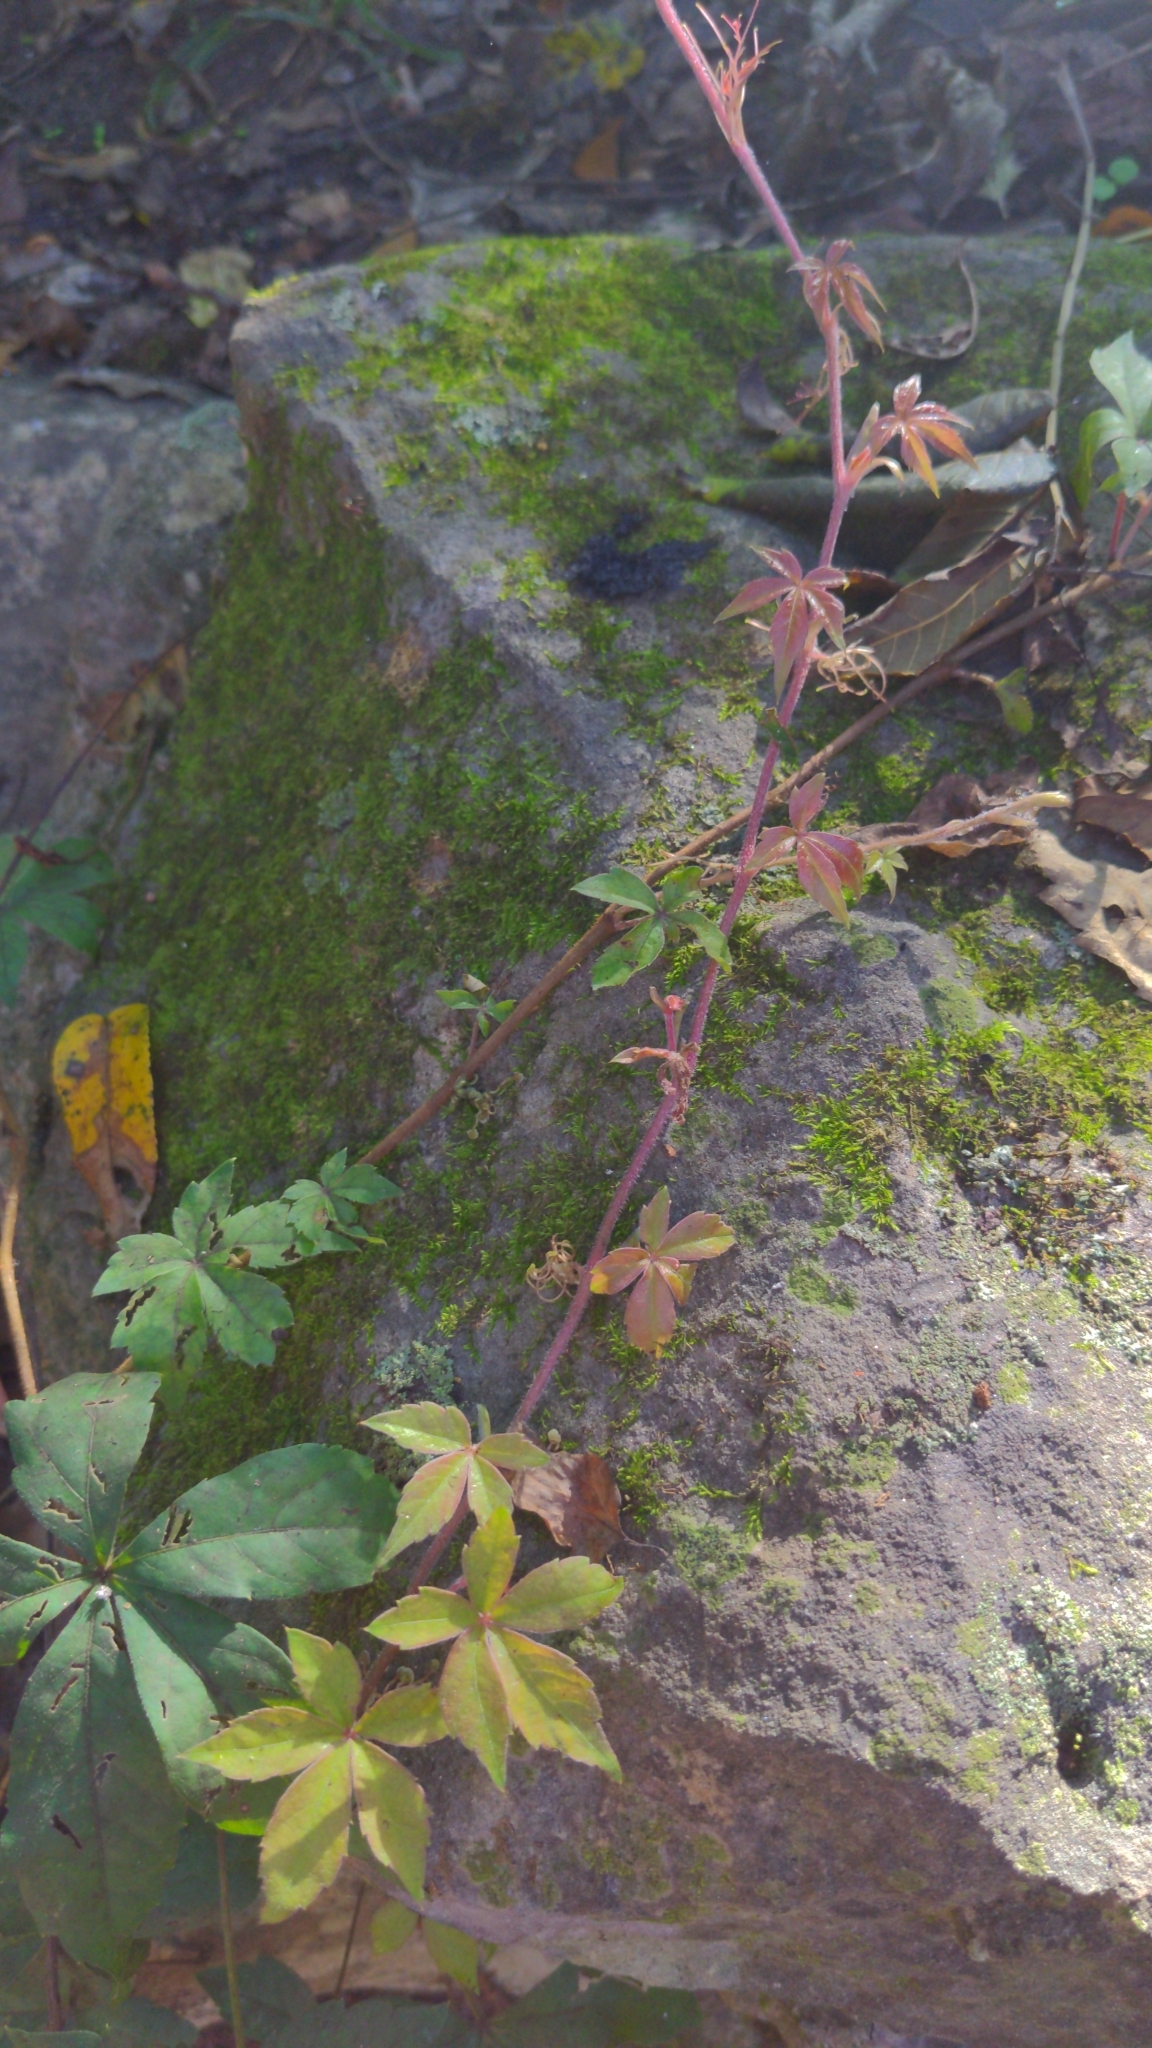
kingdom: Plantae
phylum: Tracheophyta
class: Magnoliopsida
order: Vitales
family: Vitaceae
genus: Parthenocissus
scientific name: Parthenocissus quinquefolia
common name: Virginia-creeper
